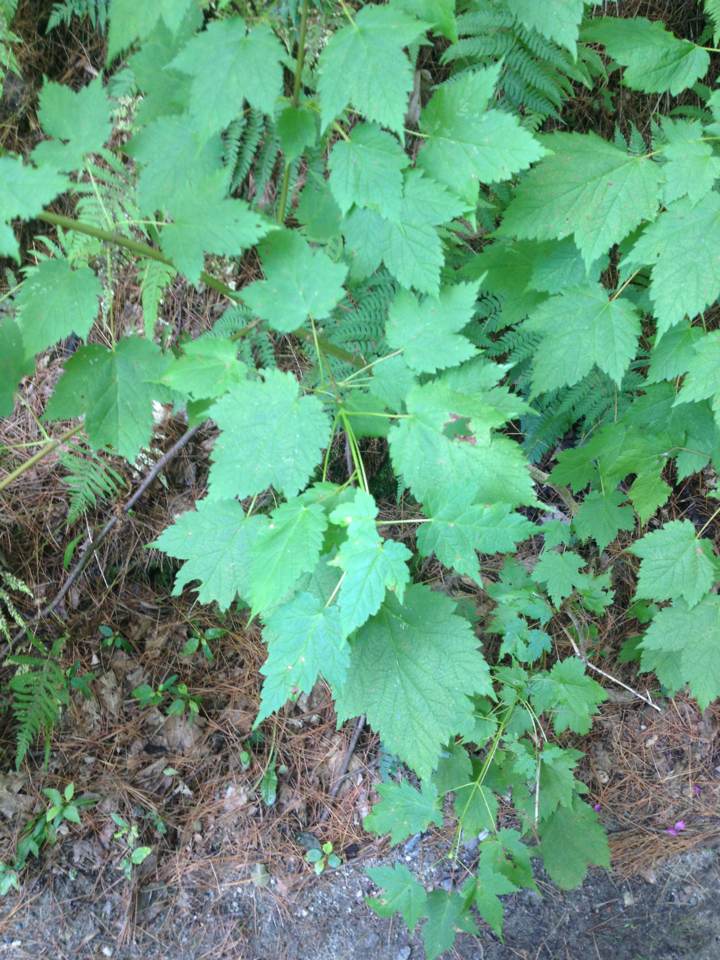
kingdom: Plantae
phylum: Tracheophyta
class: Magnoliopsida
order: Sapindales
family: Sapindaceae
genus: Acer
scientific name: Acer spicatum
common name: Mountain maple
